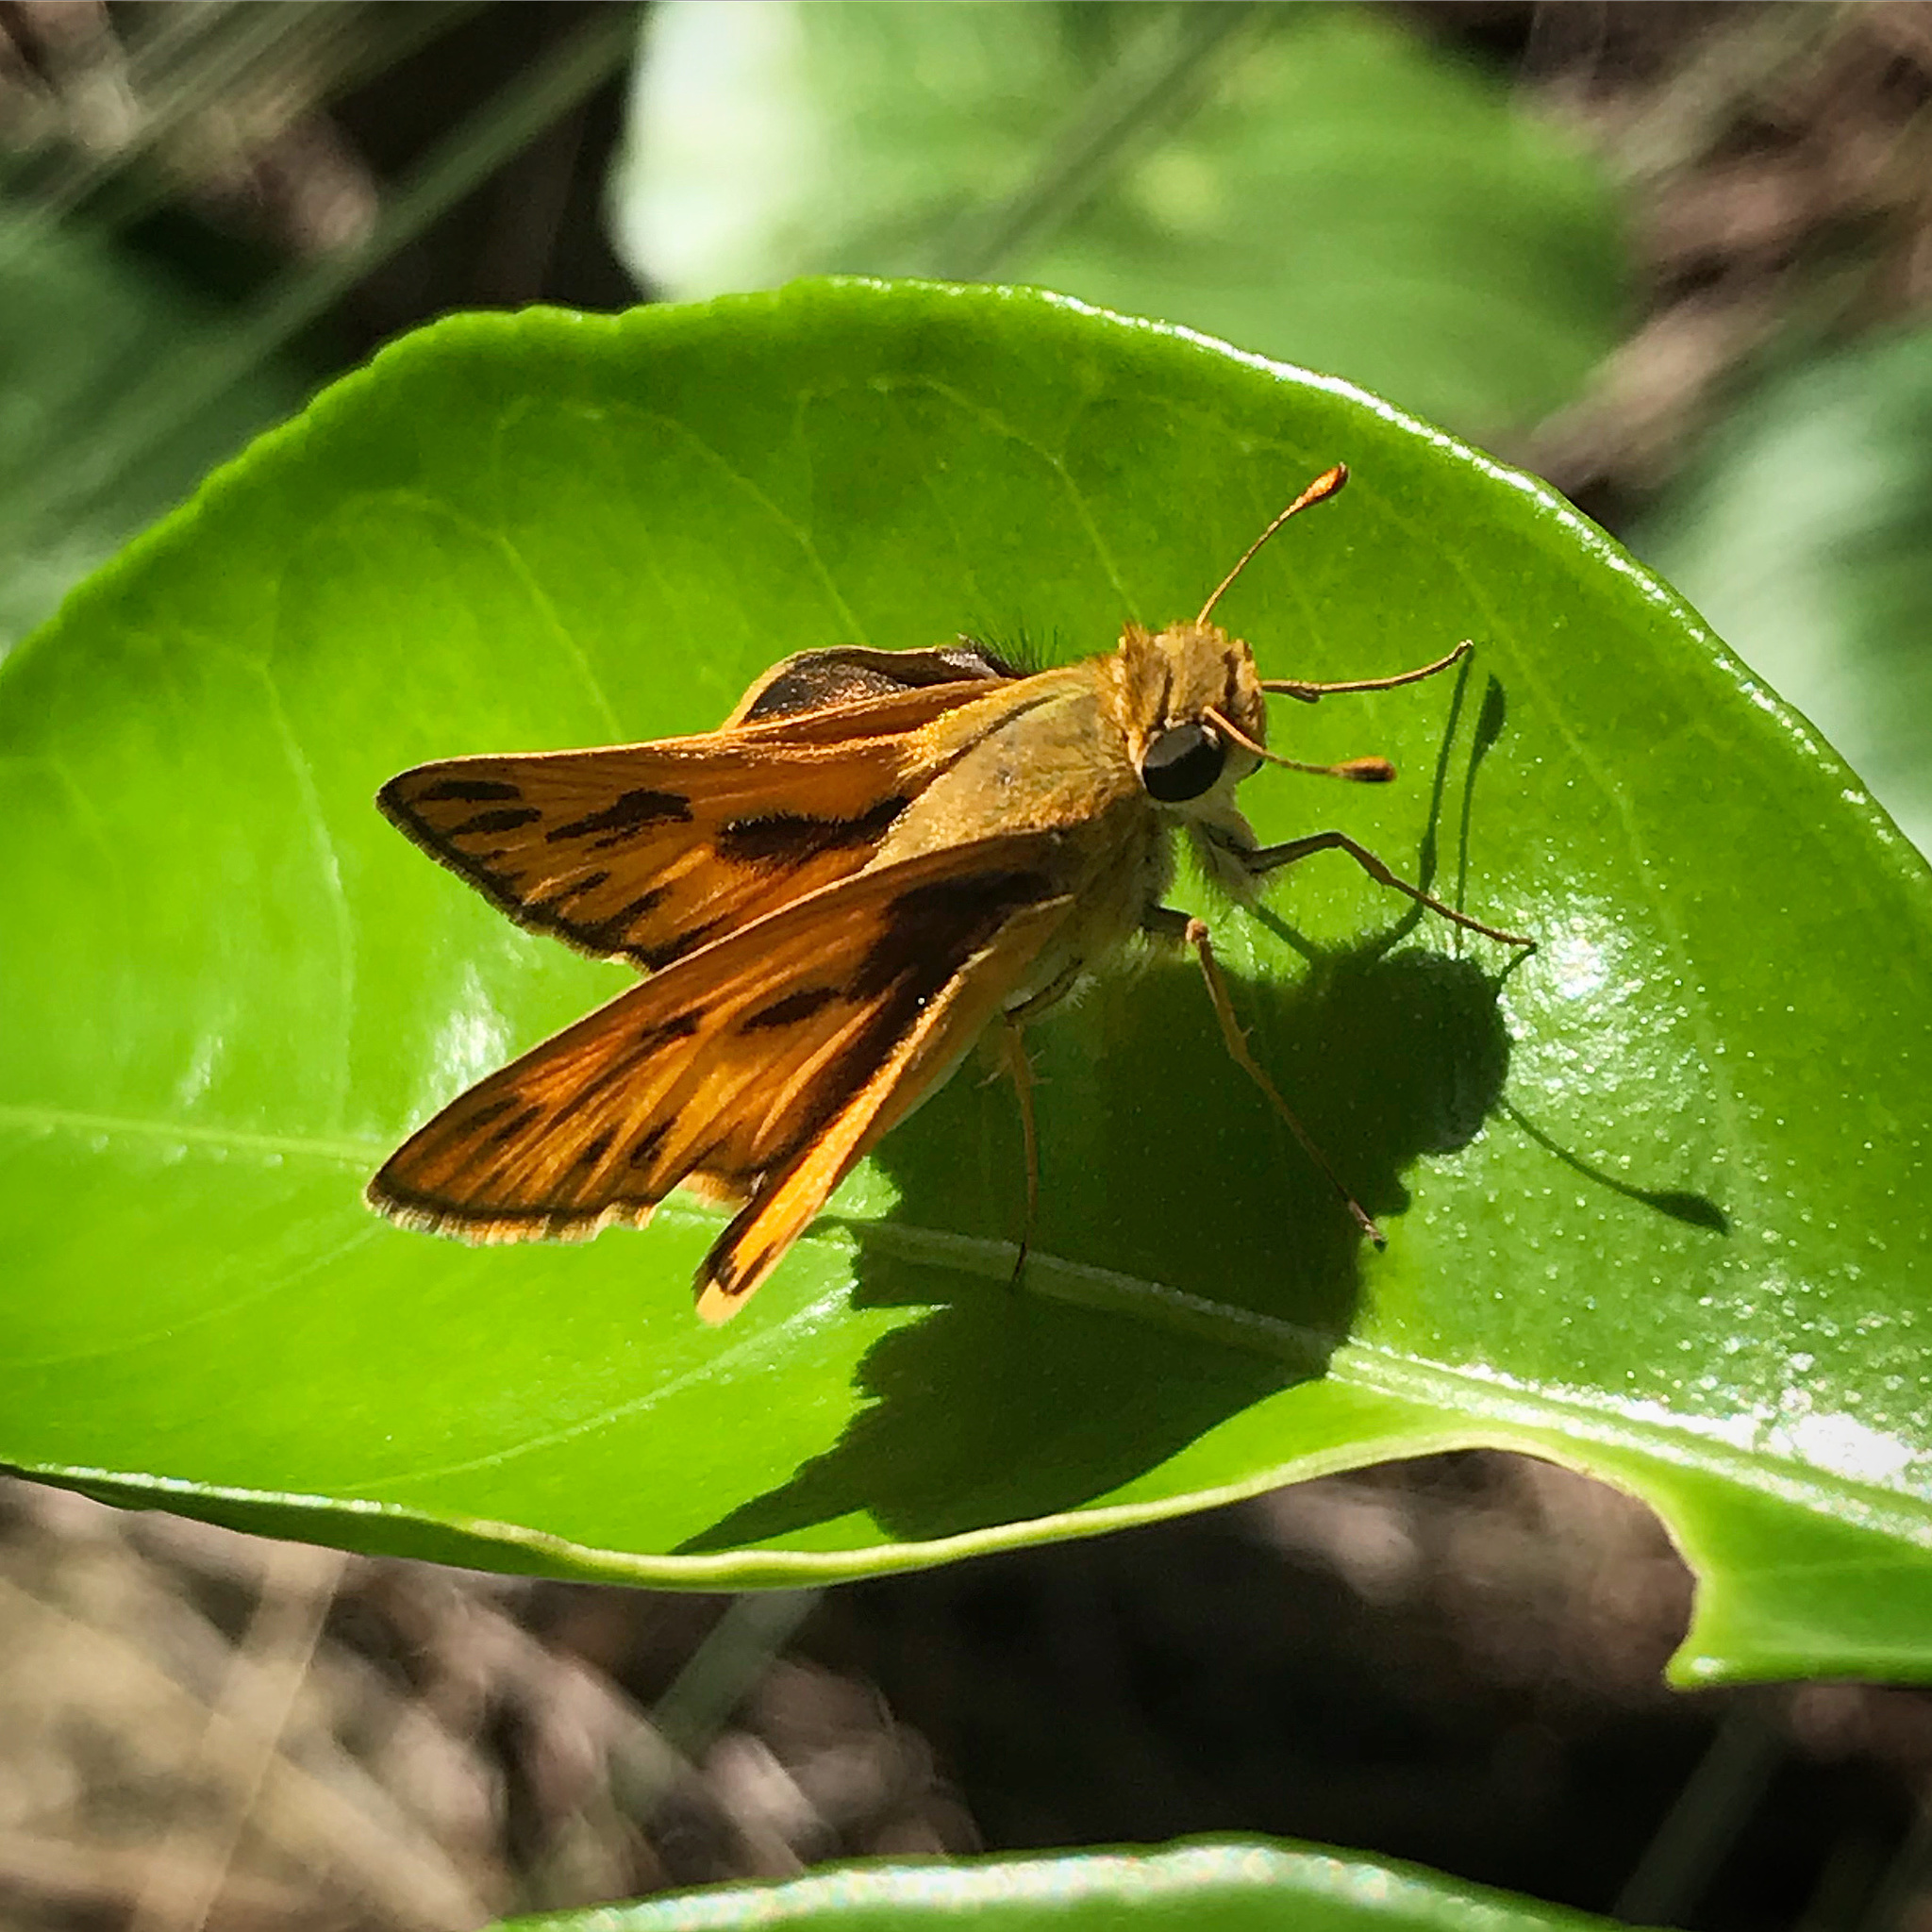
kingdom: Animalia
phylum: Arthropoda
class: Insecta
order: Lepidoptera
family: Hesperiidae
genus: Hylephila
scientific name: Hylephila phyleus
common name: Fiery skipper
